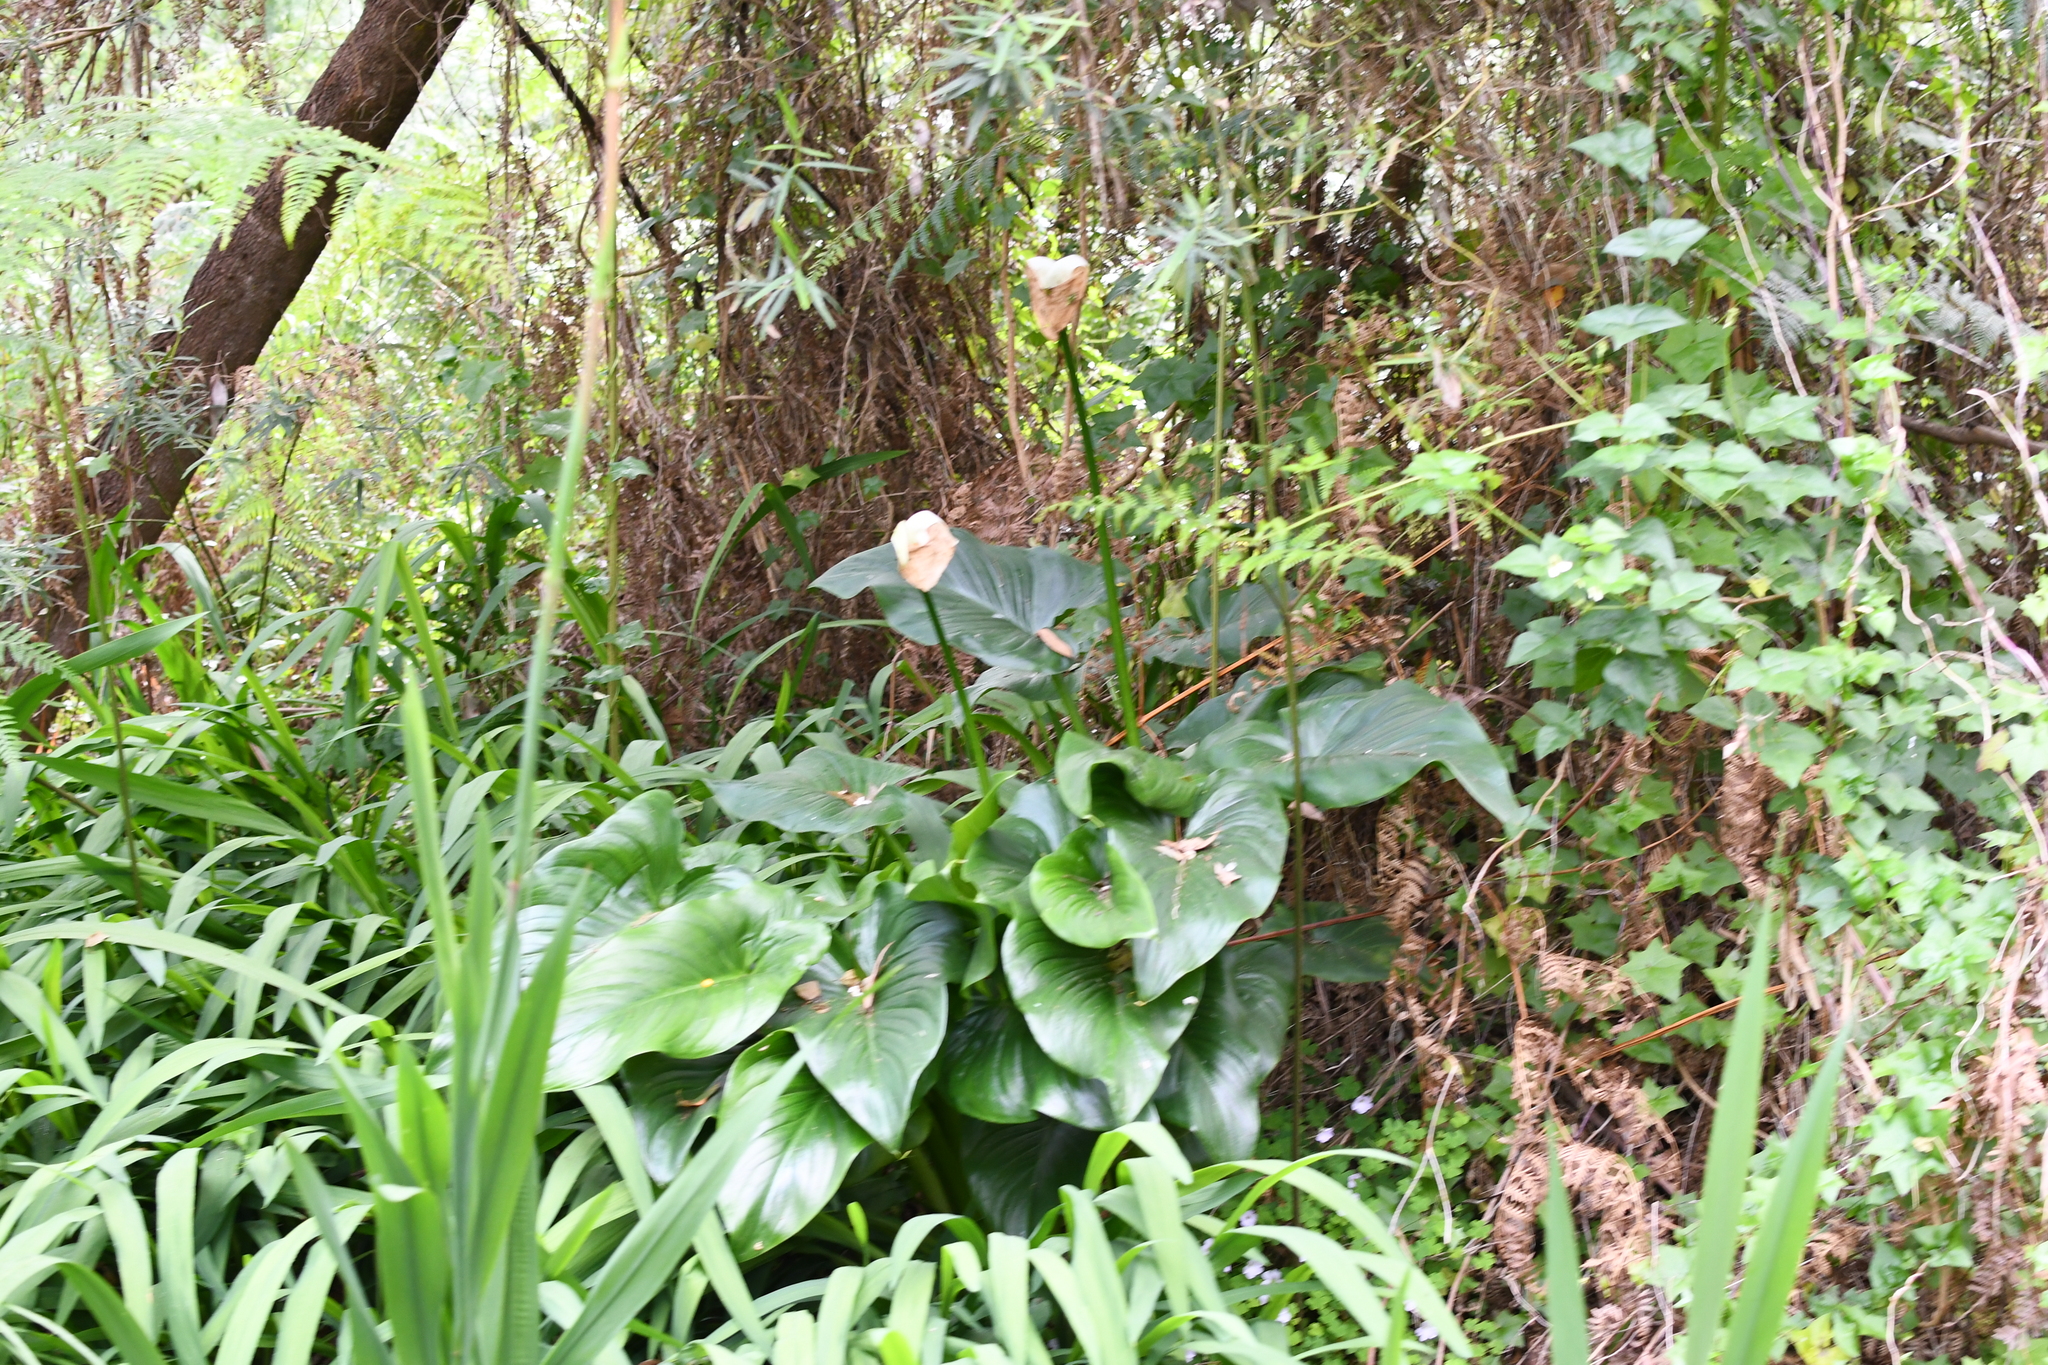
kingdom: Plantae
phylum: Tracheophyta
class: Liliopsida
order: Alismatales
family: Araceae
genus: Zantedeschia
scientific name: Zantedeschia aethiopica
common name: Altar-lily
